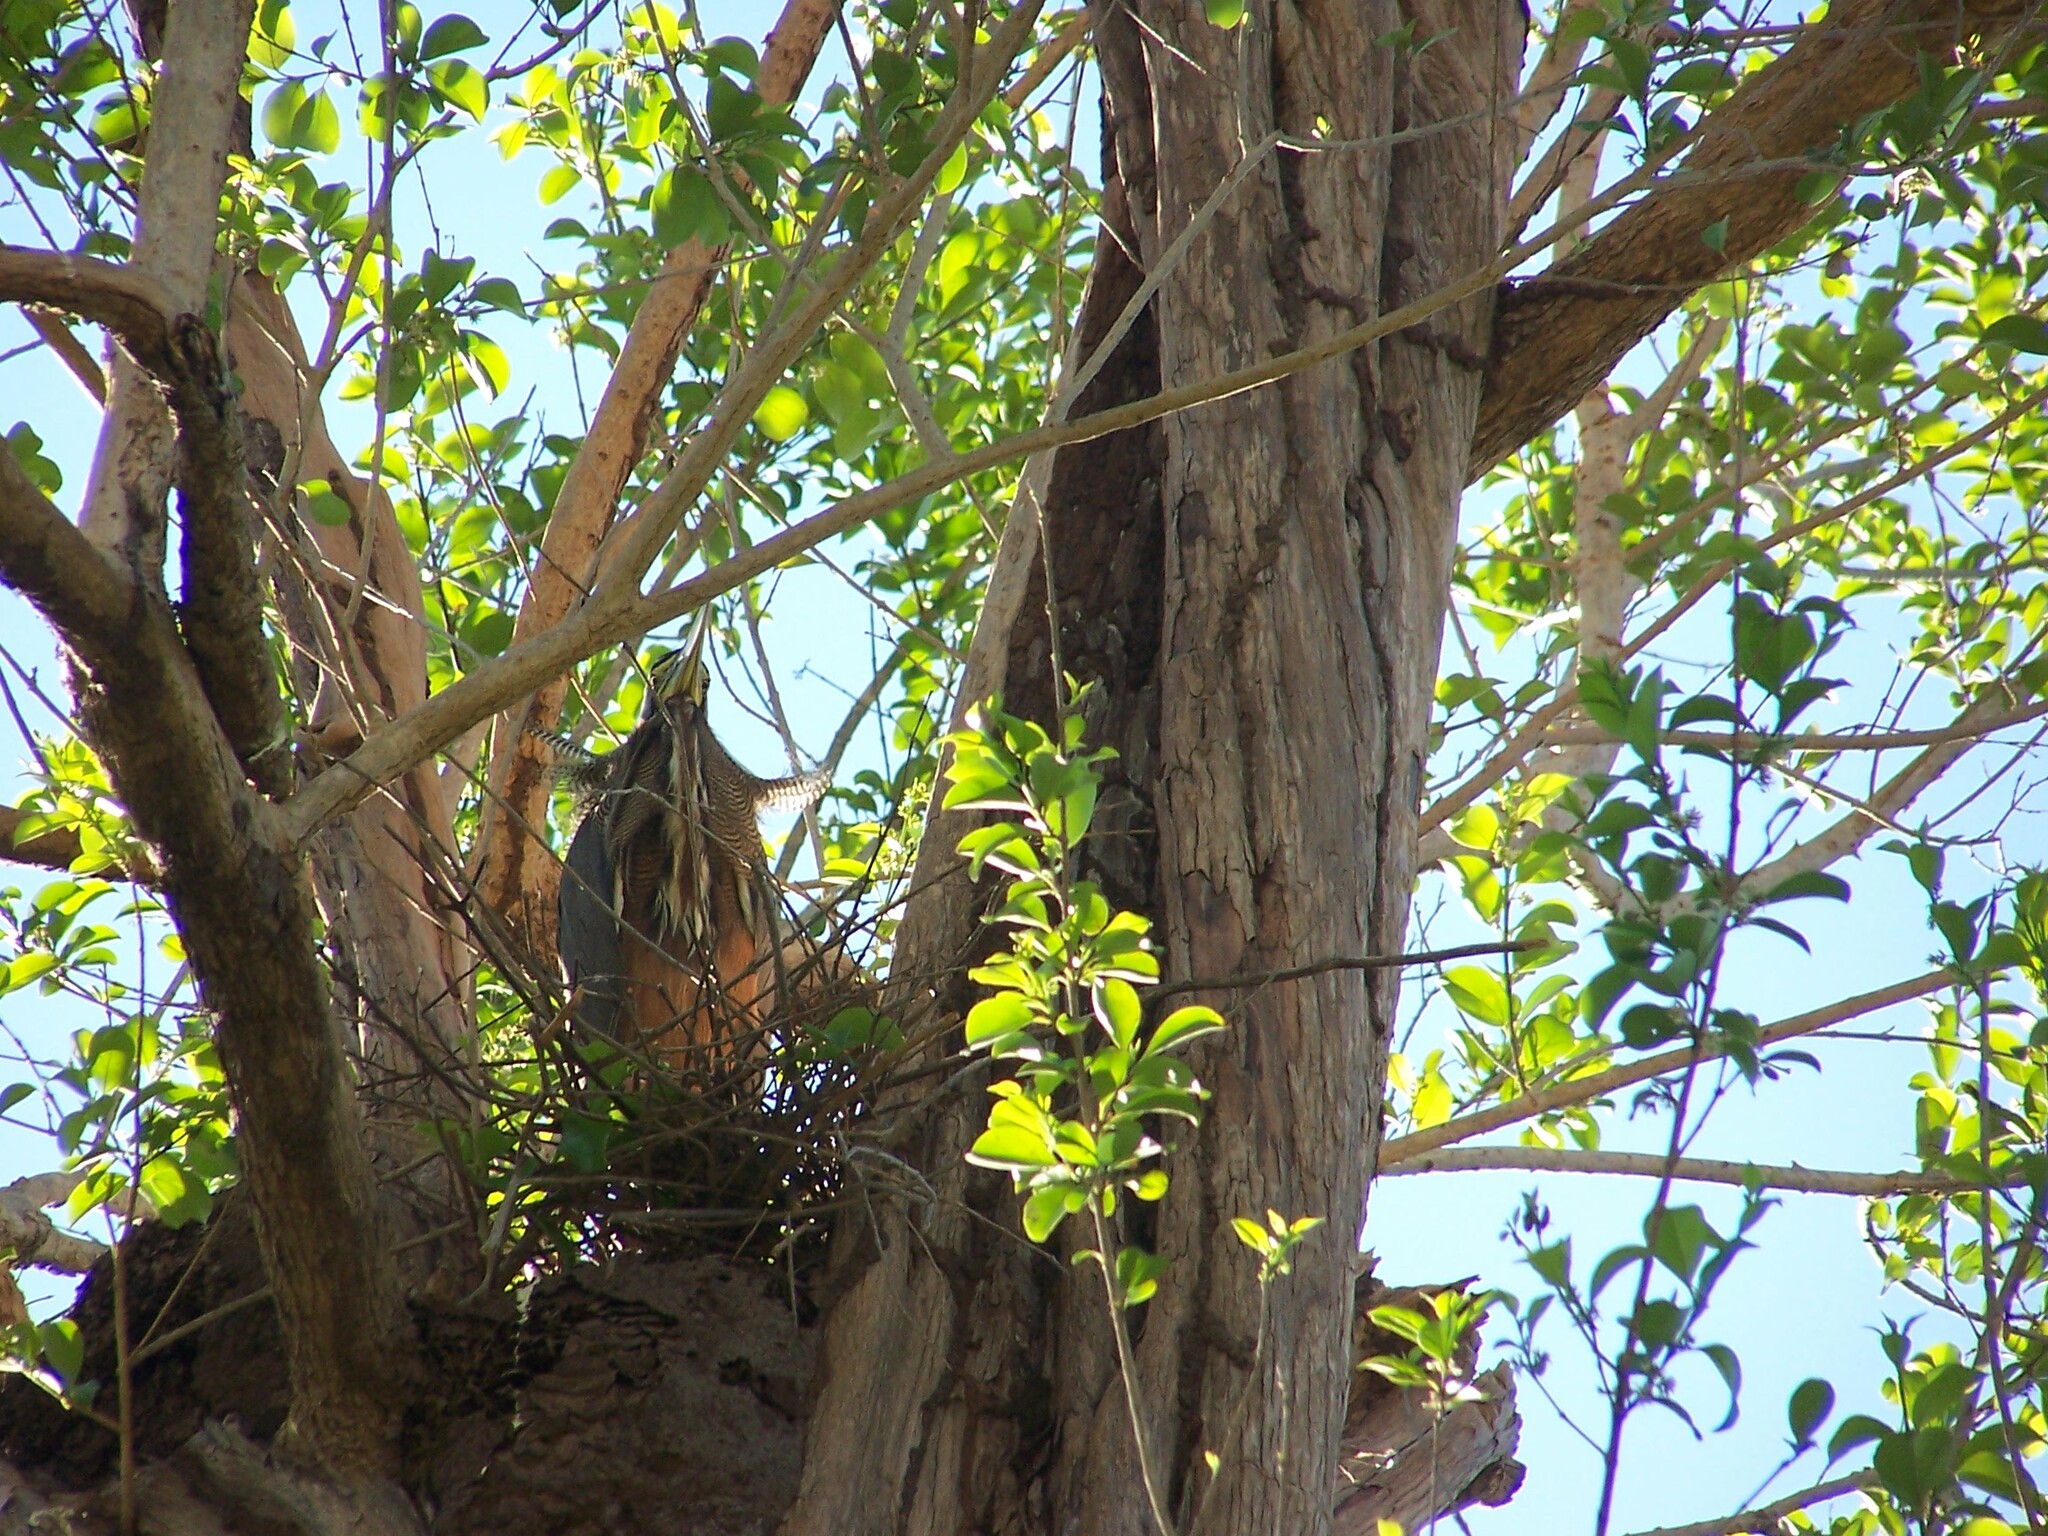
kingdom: Animalia
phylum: Chordata
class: Aves
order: Pelecaniformes
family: Ardeidae
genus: Tigrisoma
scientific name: Tigrisoma mexicanum
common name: Bare-throated tiger-heron
